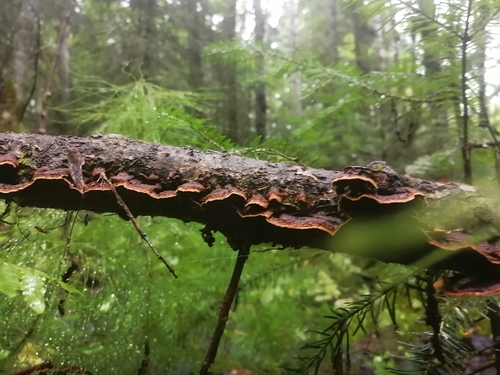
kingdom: Fungi
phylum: Basidiomycota
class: Agaricomycetes
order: Hymenochaetales
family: Hymenochaetaceae
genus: Hydnoporia
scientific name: Hydnoporia tabacina
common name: Willow glue
